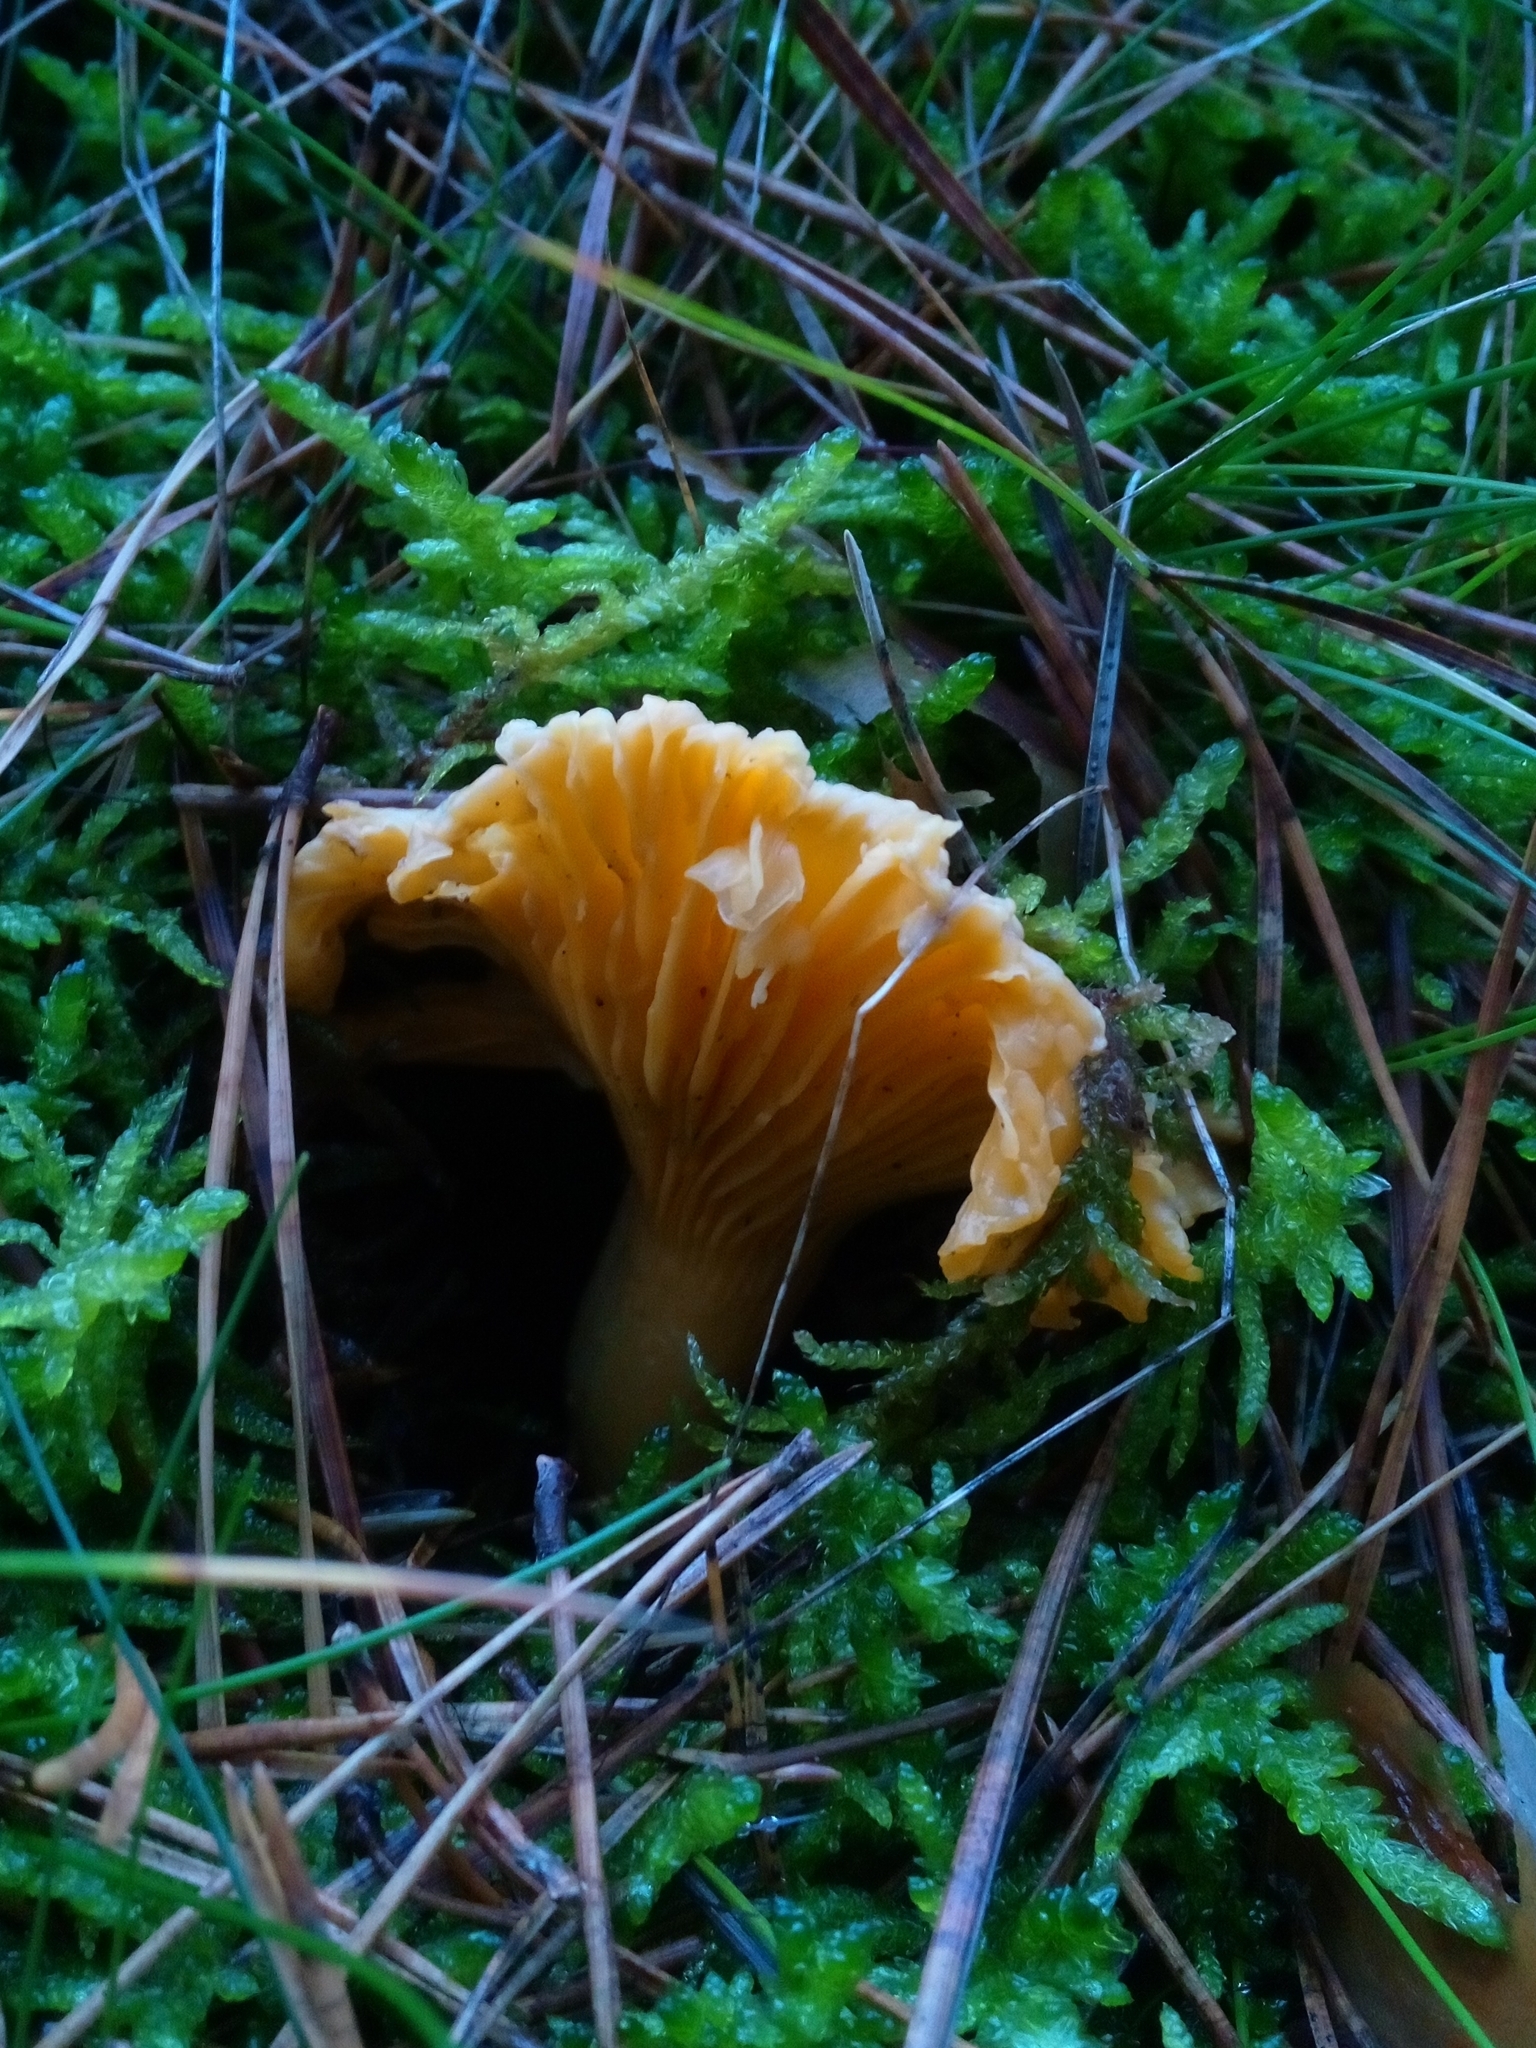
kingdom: Fungi
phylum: Basidiomycota
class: Agaricomycetes
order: Cantharellales
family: Hydnaceae
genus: Cantharellus
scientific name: Cantharellus cibarius
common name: Chanterelle
